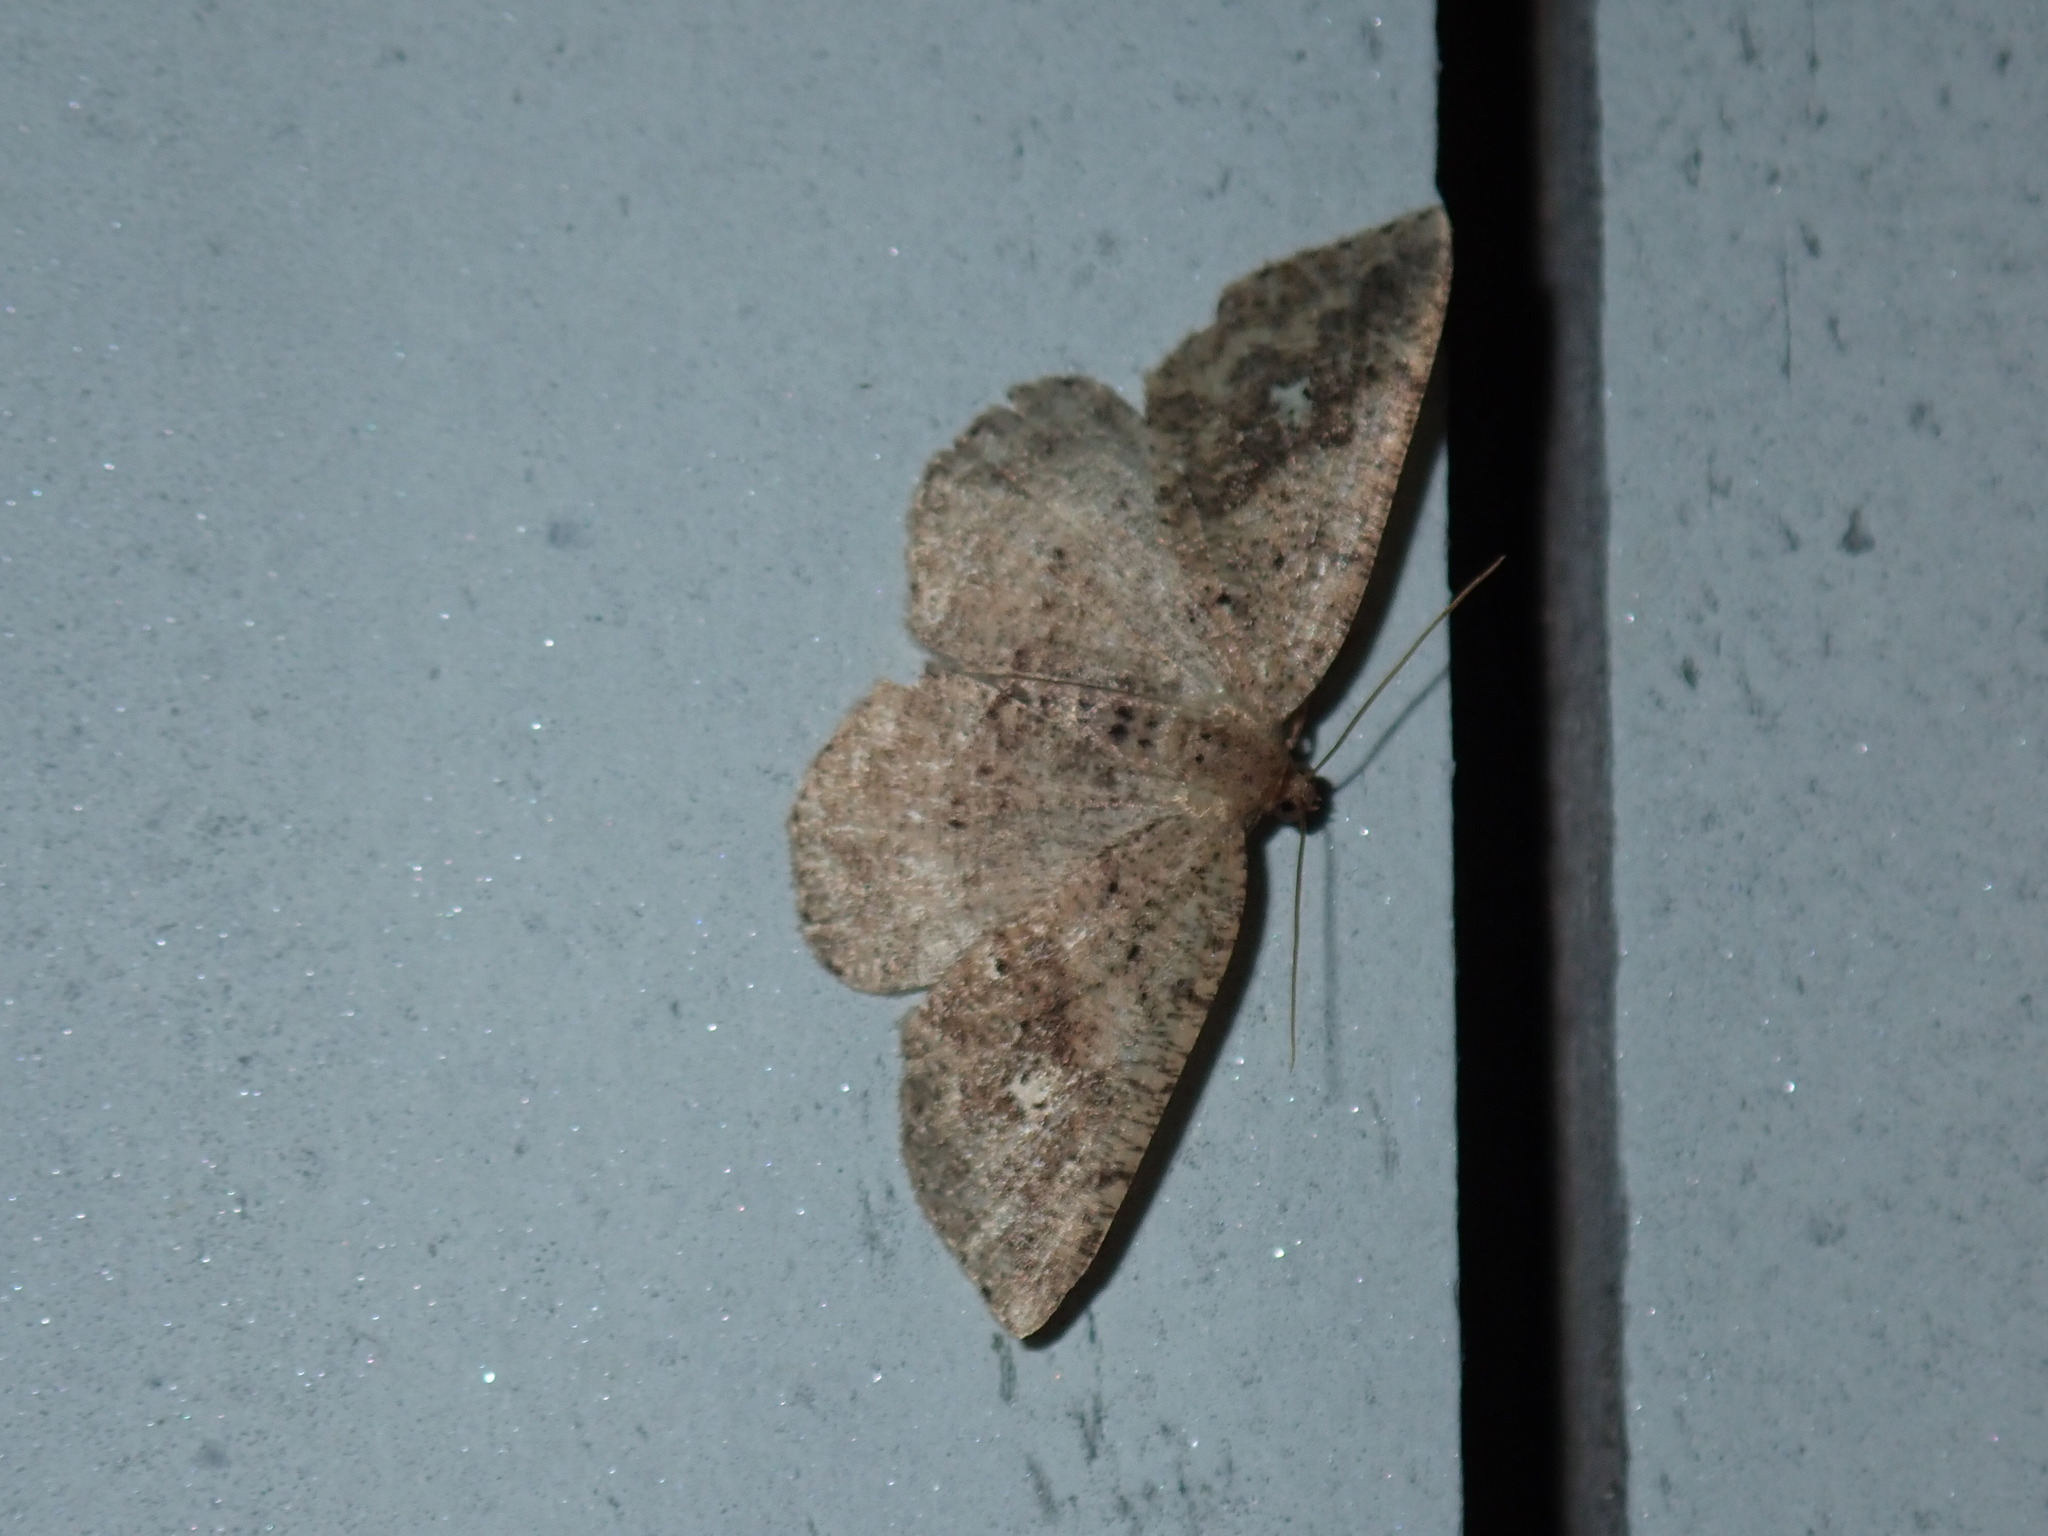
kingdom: Animalia
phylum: Arthropoda
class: Insecta
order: Lepidoptera
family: Geometridae
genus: Homochlodes
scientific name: Homochlodes fritillaria
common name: Pale homochlodes
